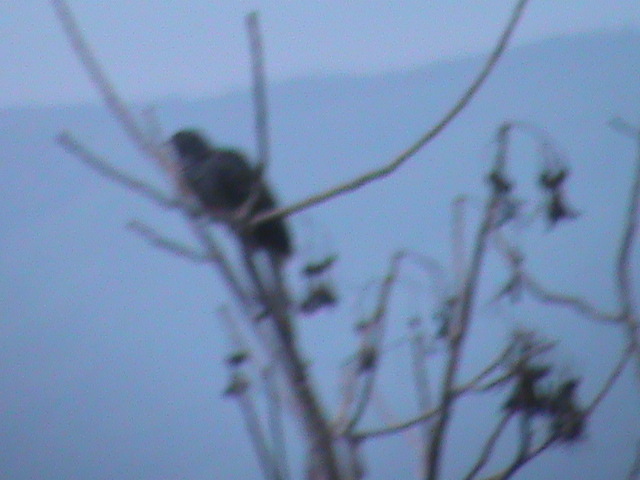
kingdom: Animalia
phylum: Chordata
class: Aves
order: Cuculiformes
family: Cuculidae
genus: Eudynamys
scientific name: Eudynamys scolopaceus
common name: Asian koel
